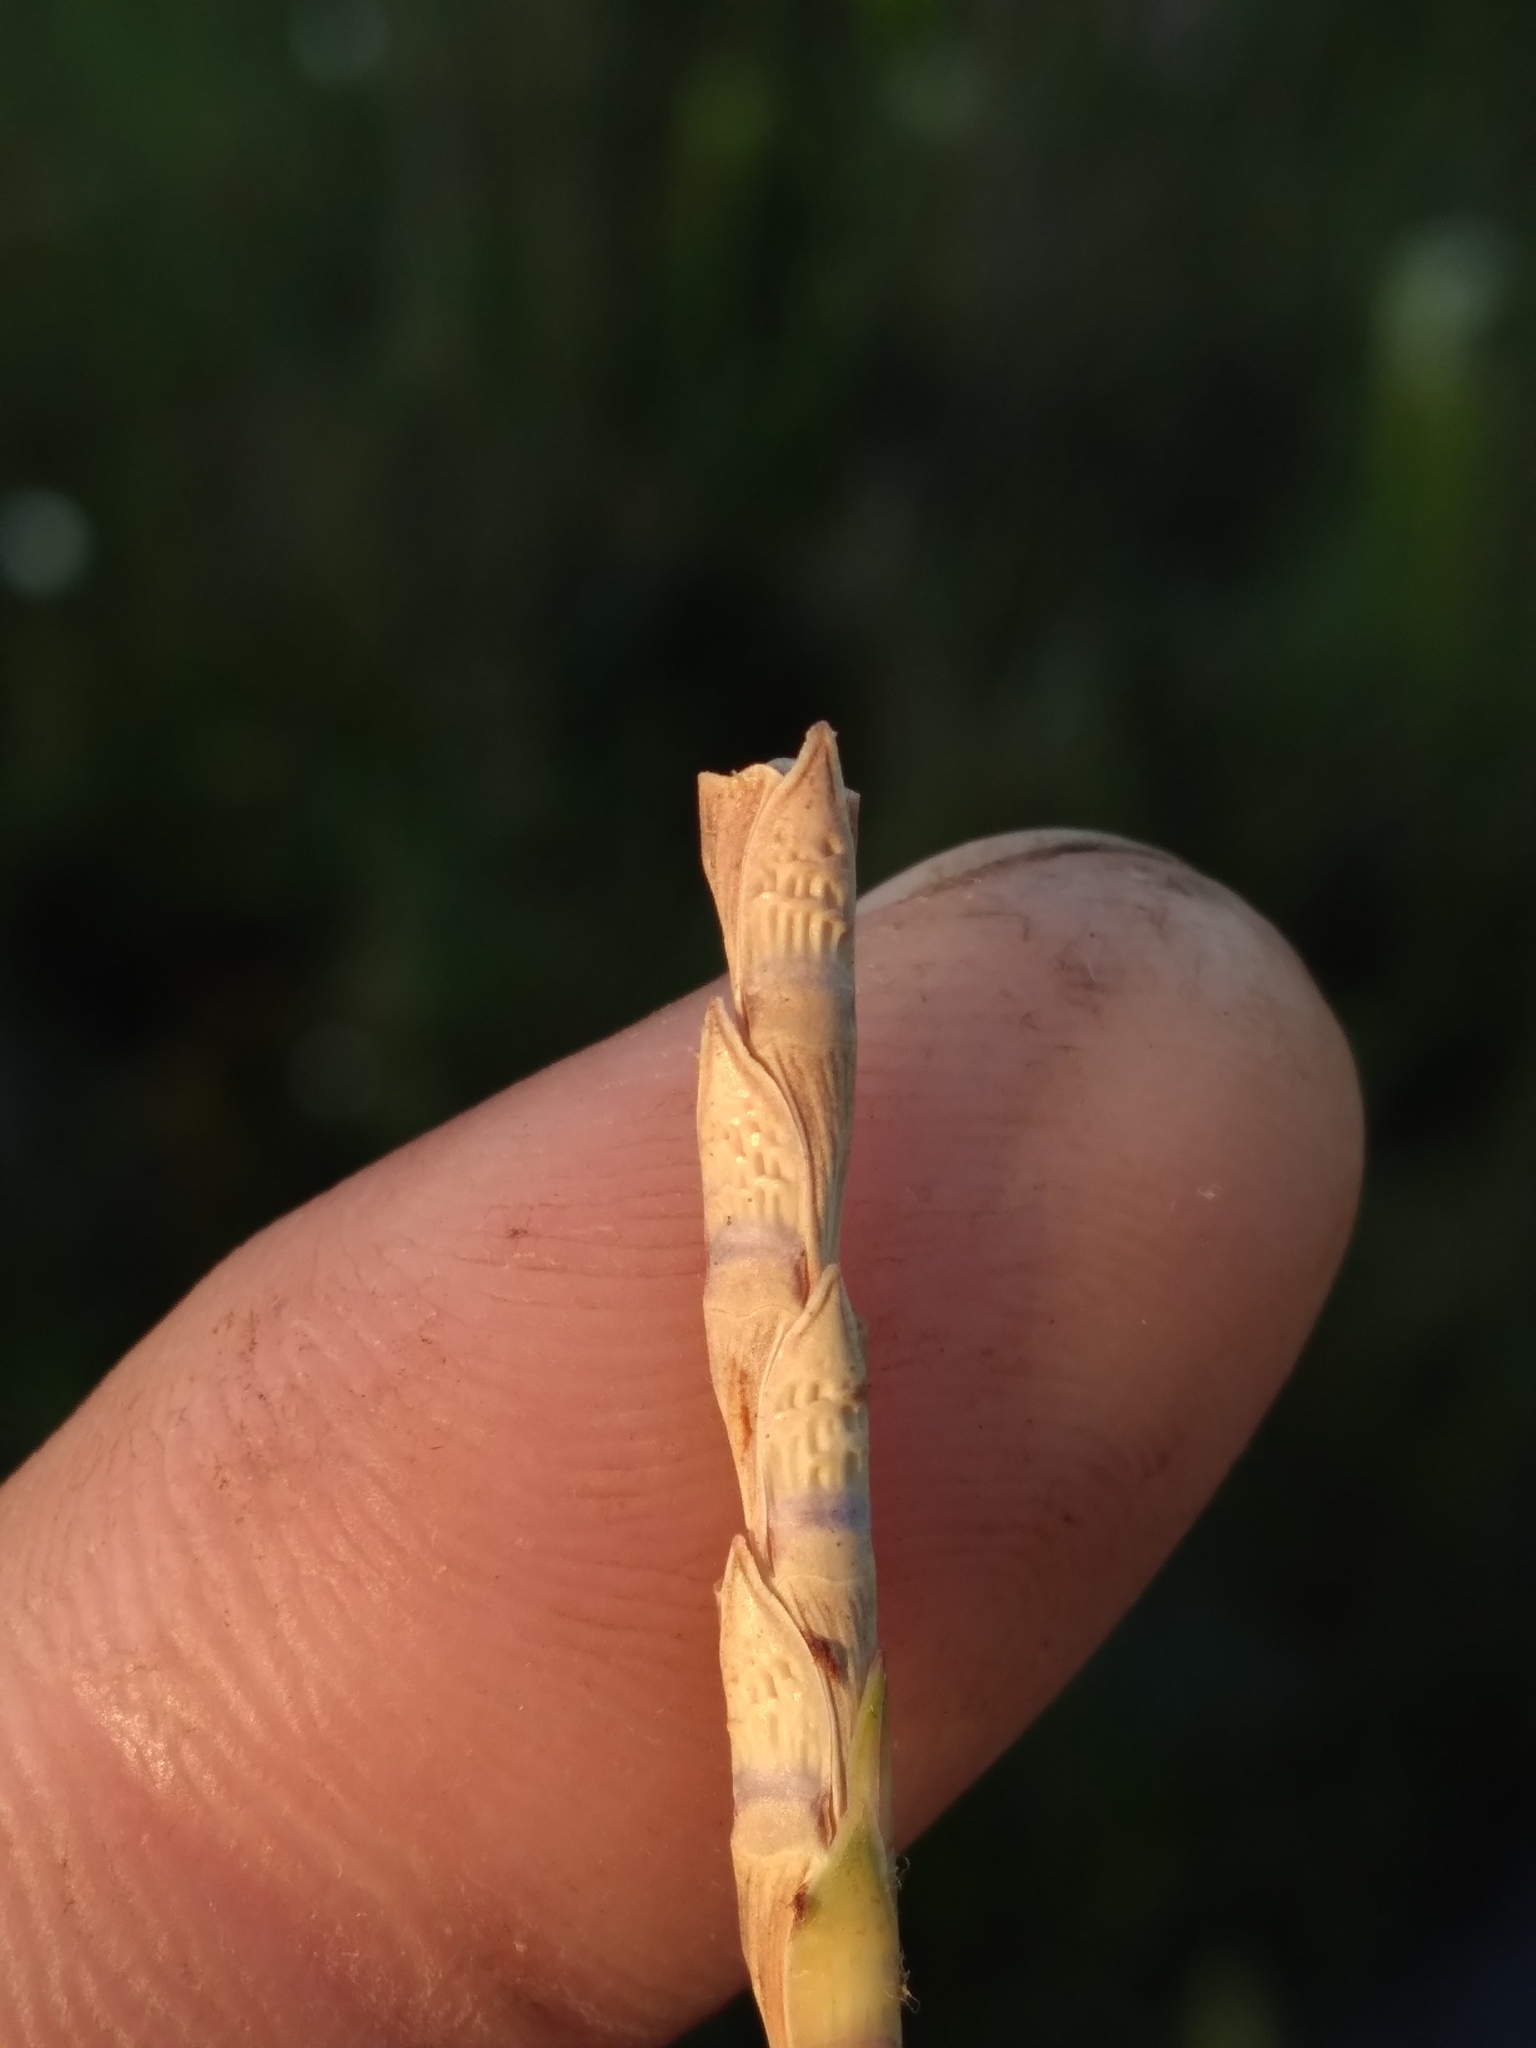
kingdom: Plantae
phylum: Tracheophyta
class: Liliopsida
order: Poales
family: Poaceae
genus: Rottboellia
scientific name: Rottboellia tessellata
